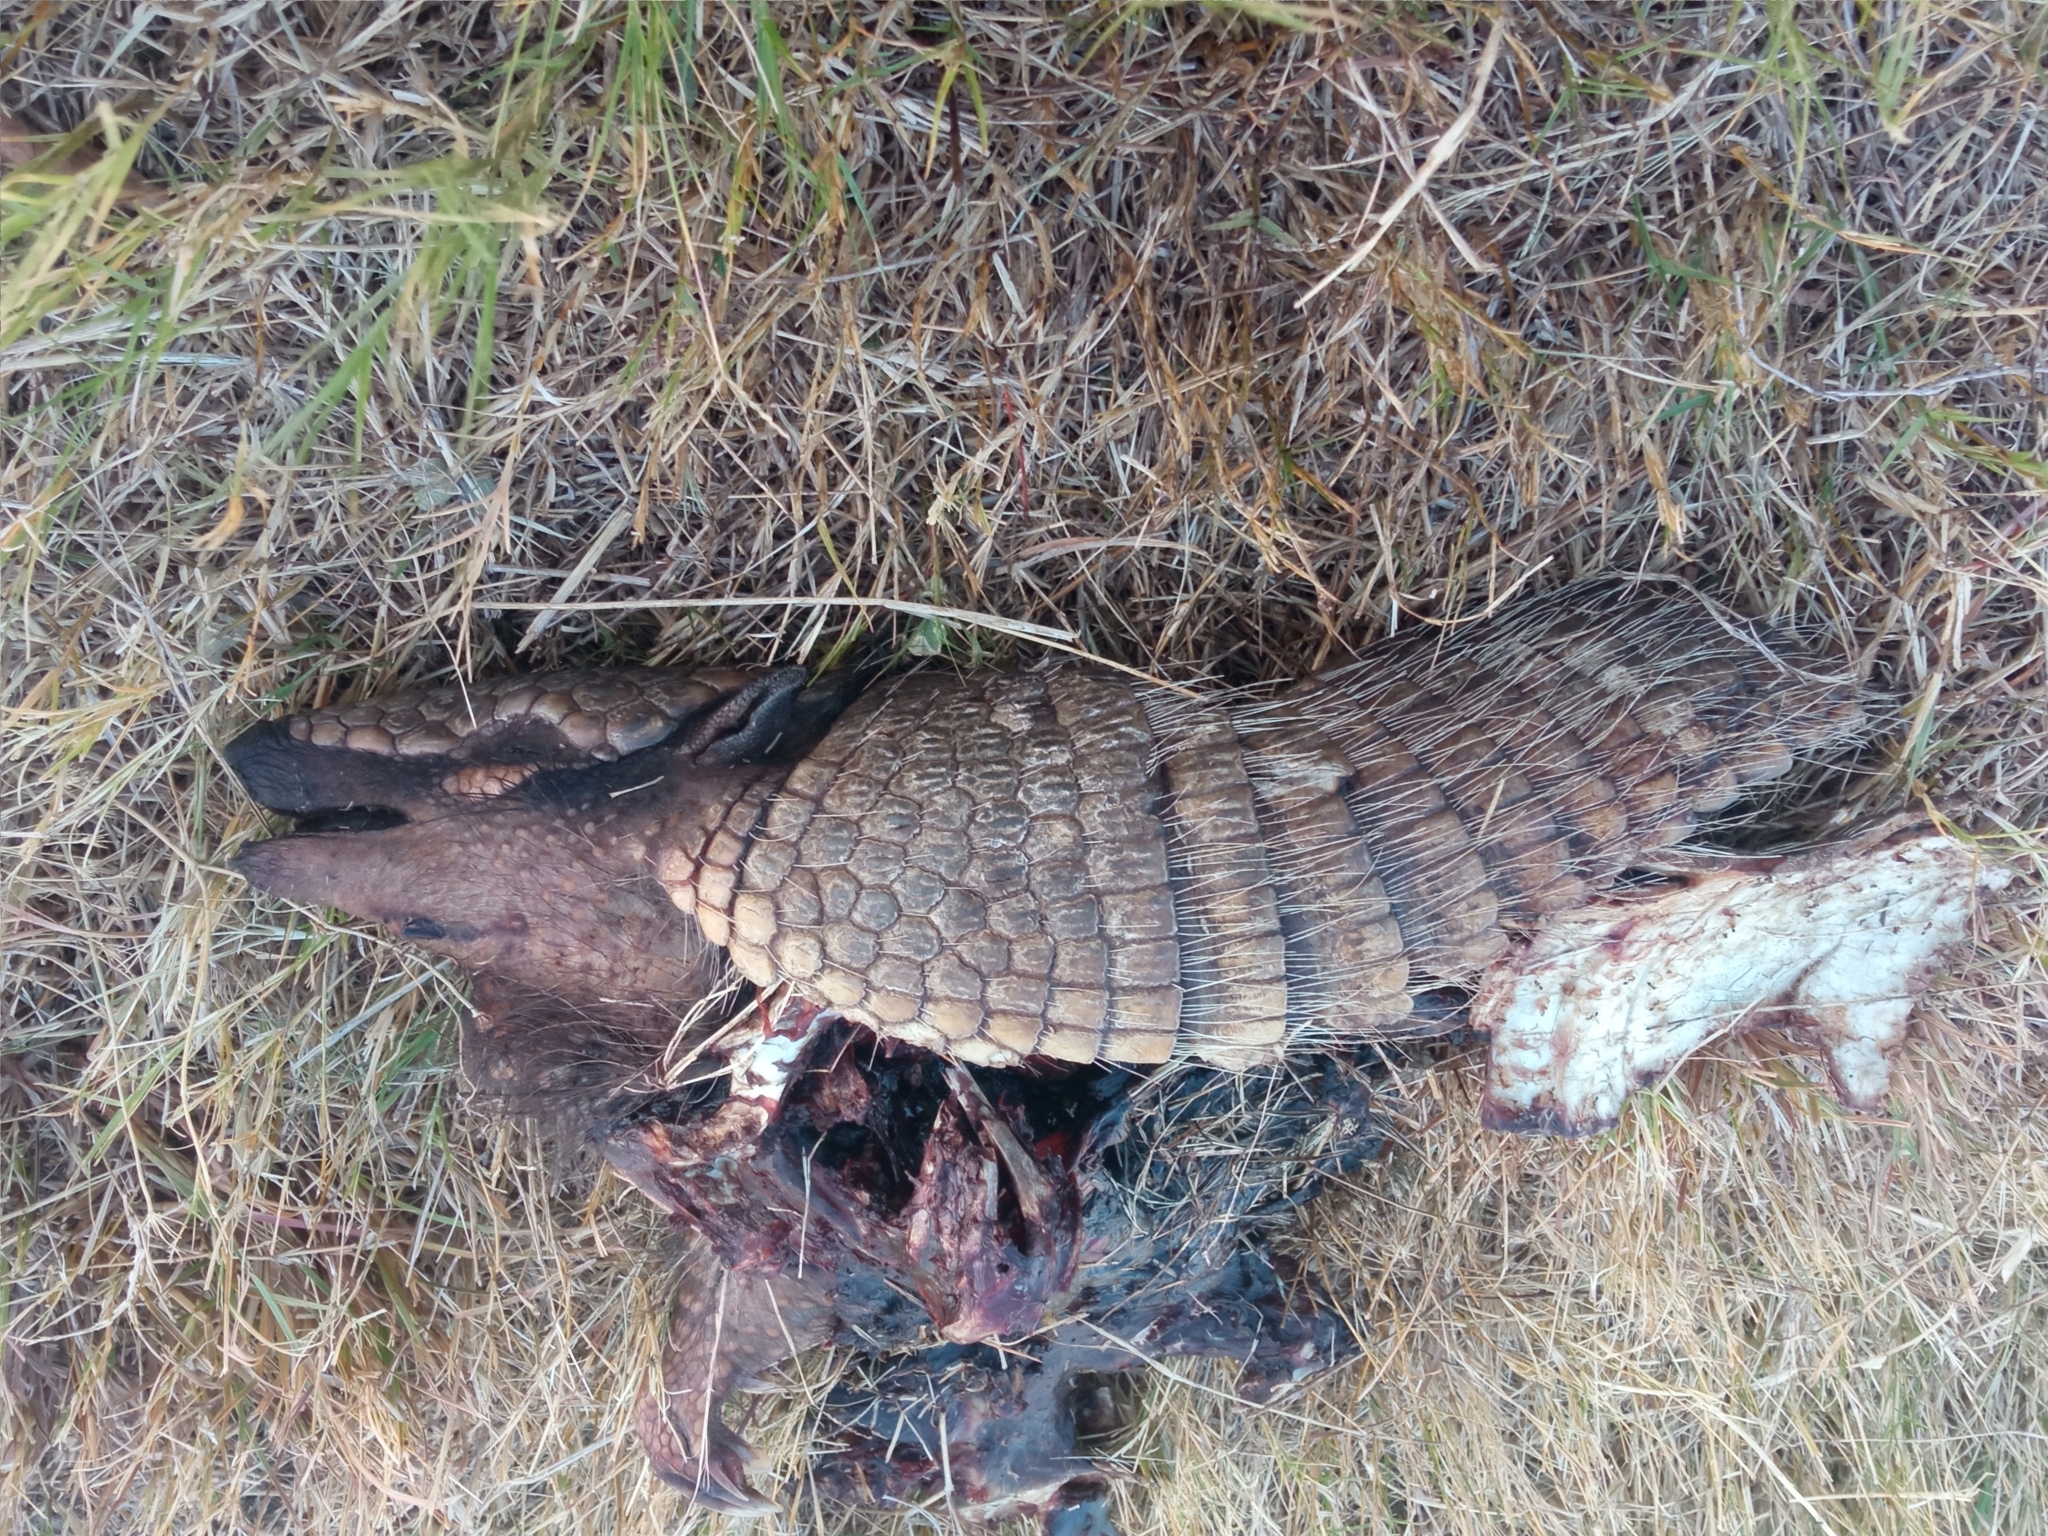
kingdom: Animalia
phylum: Chordata
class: Mammalia
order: Cingulata
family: Dasypodidae
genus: Euphractus
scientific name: Euphractus sexcinctus
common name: Six-banded armadillo
